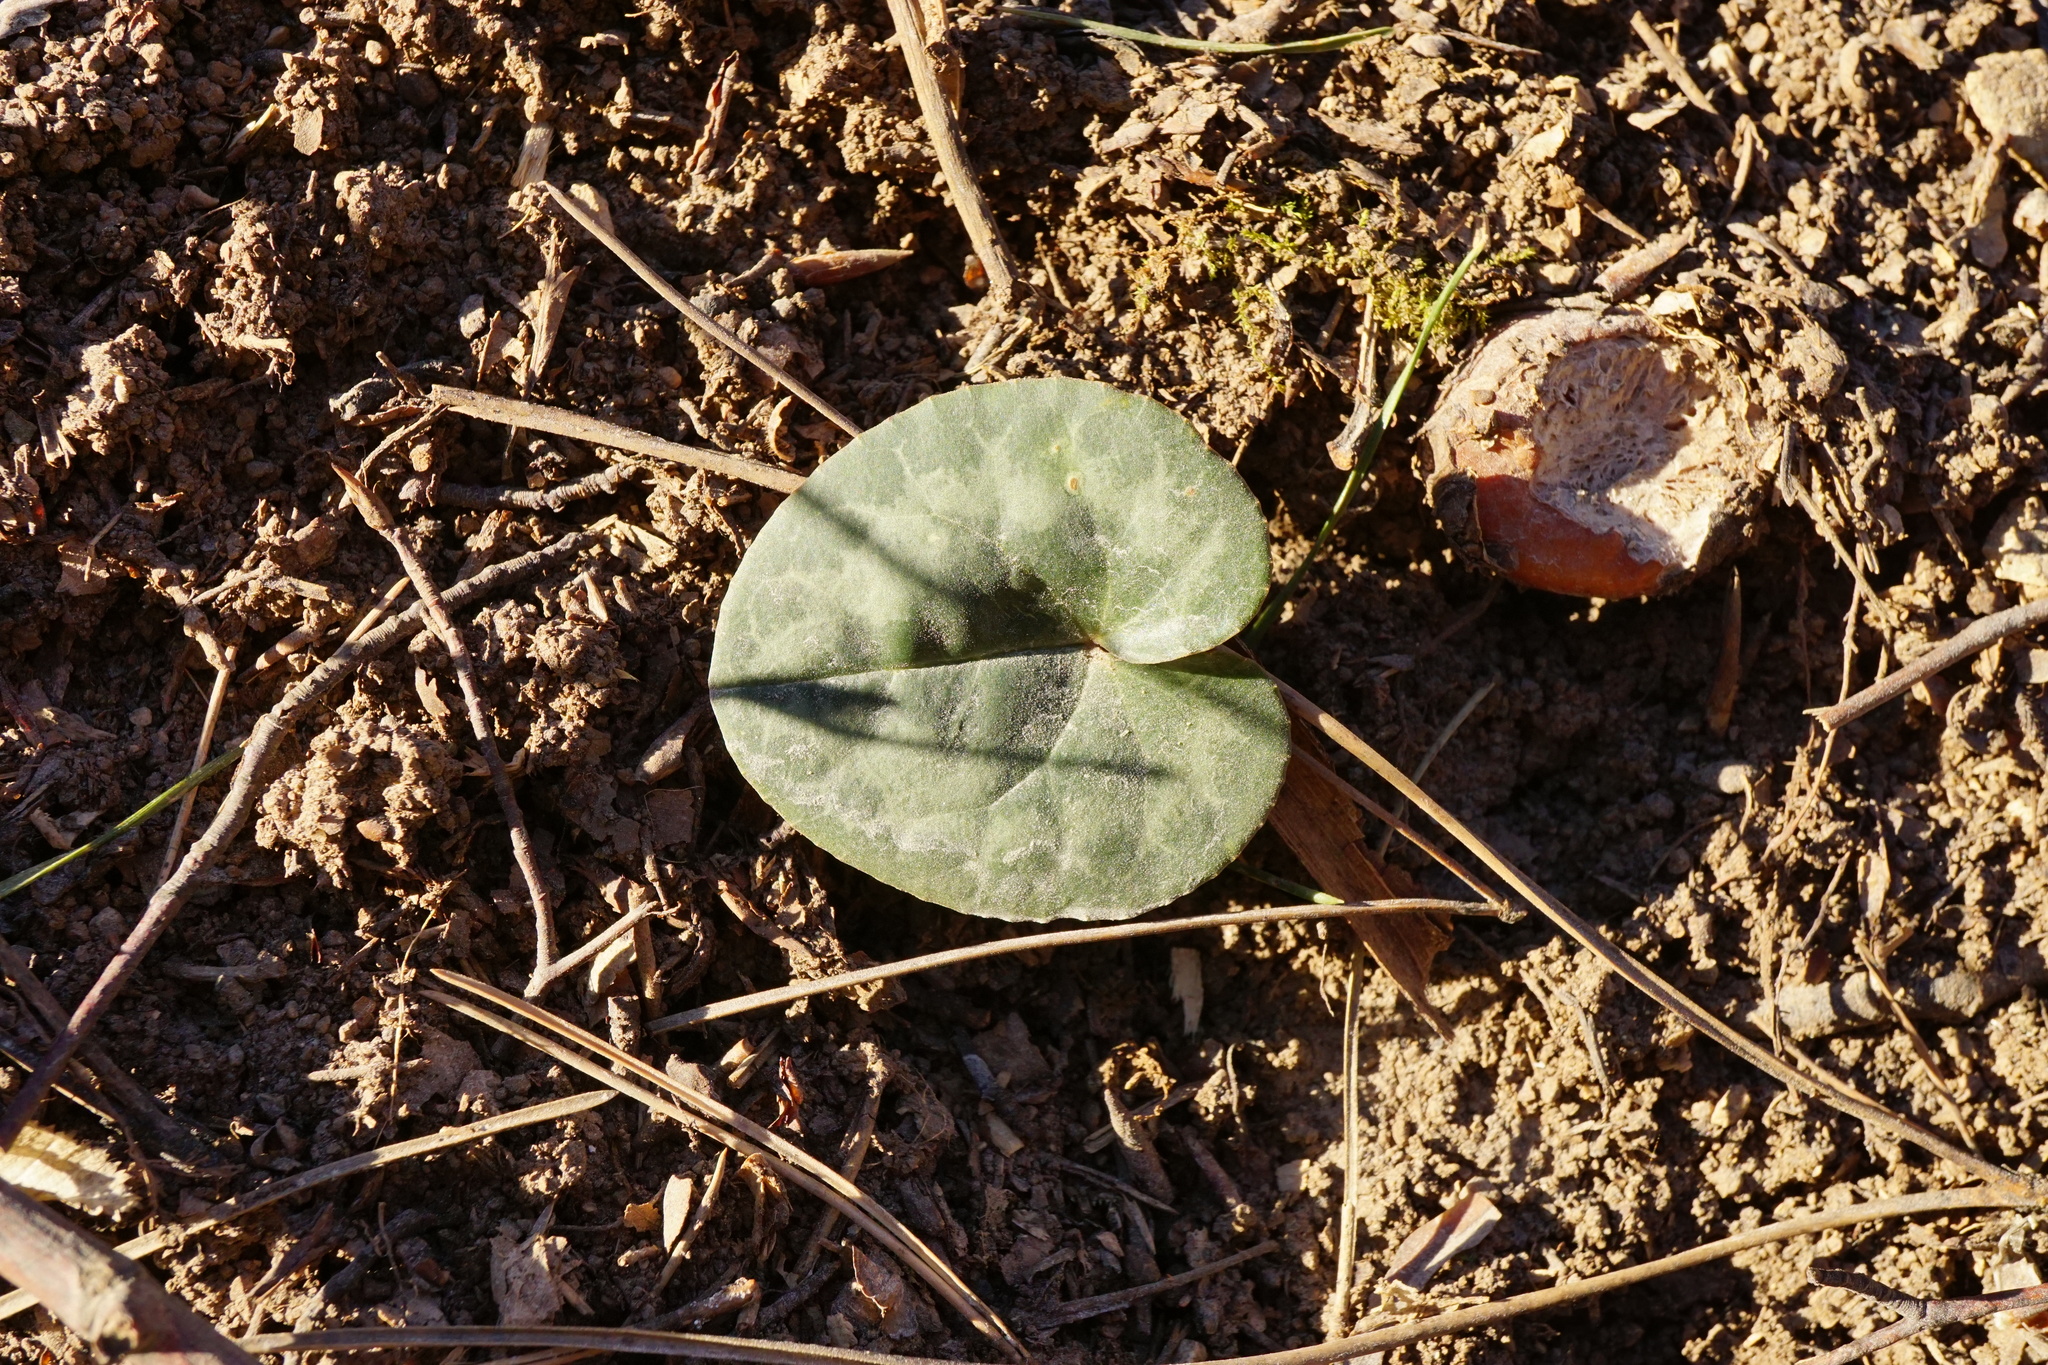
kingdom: Plantae
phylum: Tracheophyta
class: Magnoliopsida
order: Ericales
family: Primulaceae
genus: Cyclamen
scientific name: Cyclamen purpurascens
